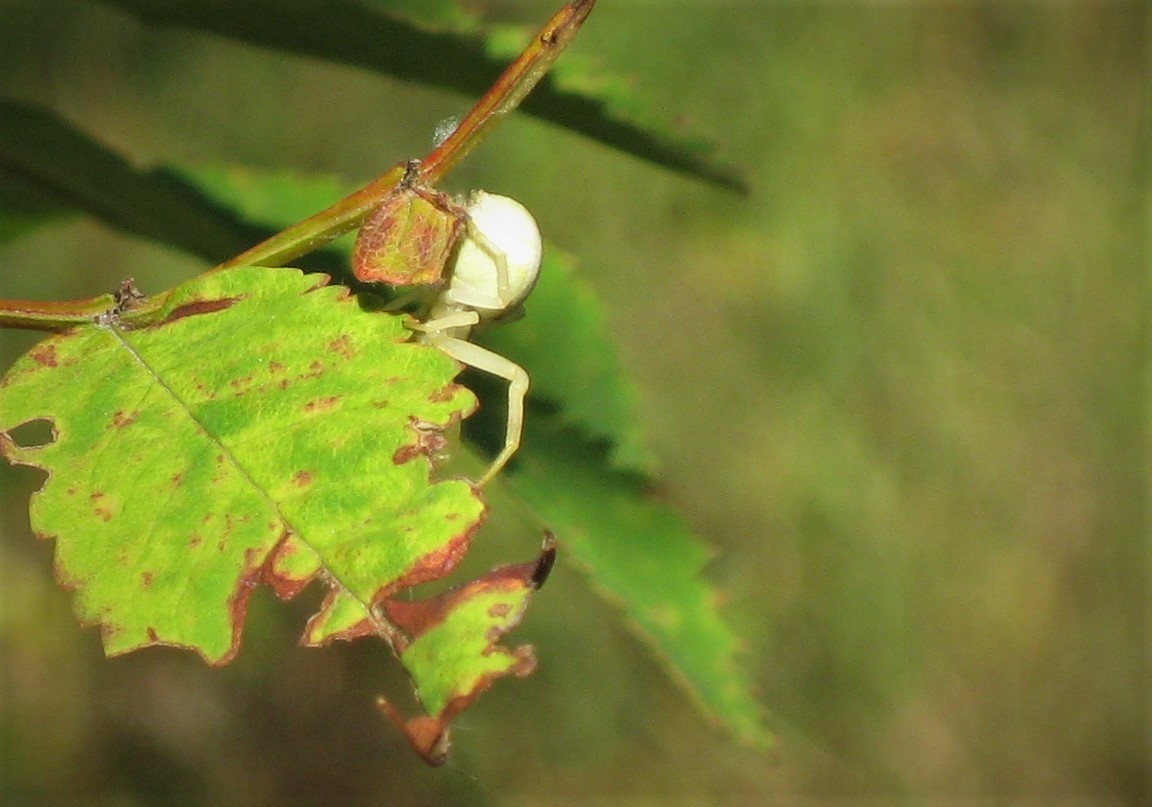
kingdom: Animalia
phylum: Arthropoda
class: Arachnida
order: Araneae
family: Thomisidae
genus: Misumena
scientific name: Misumena vatia
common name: Goldenrod crab spider
